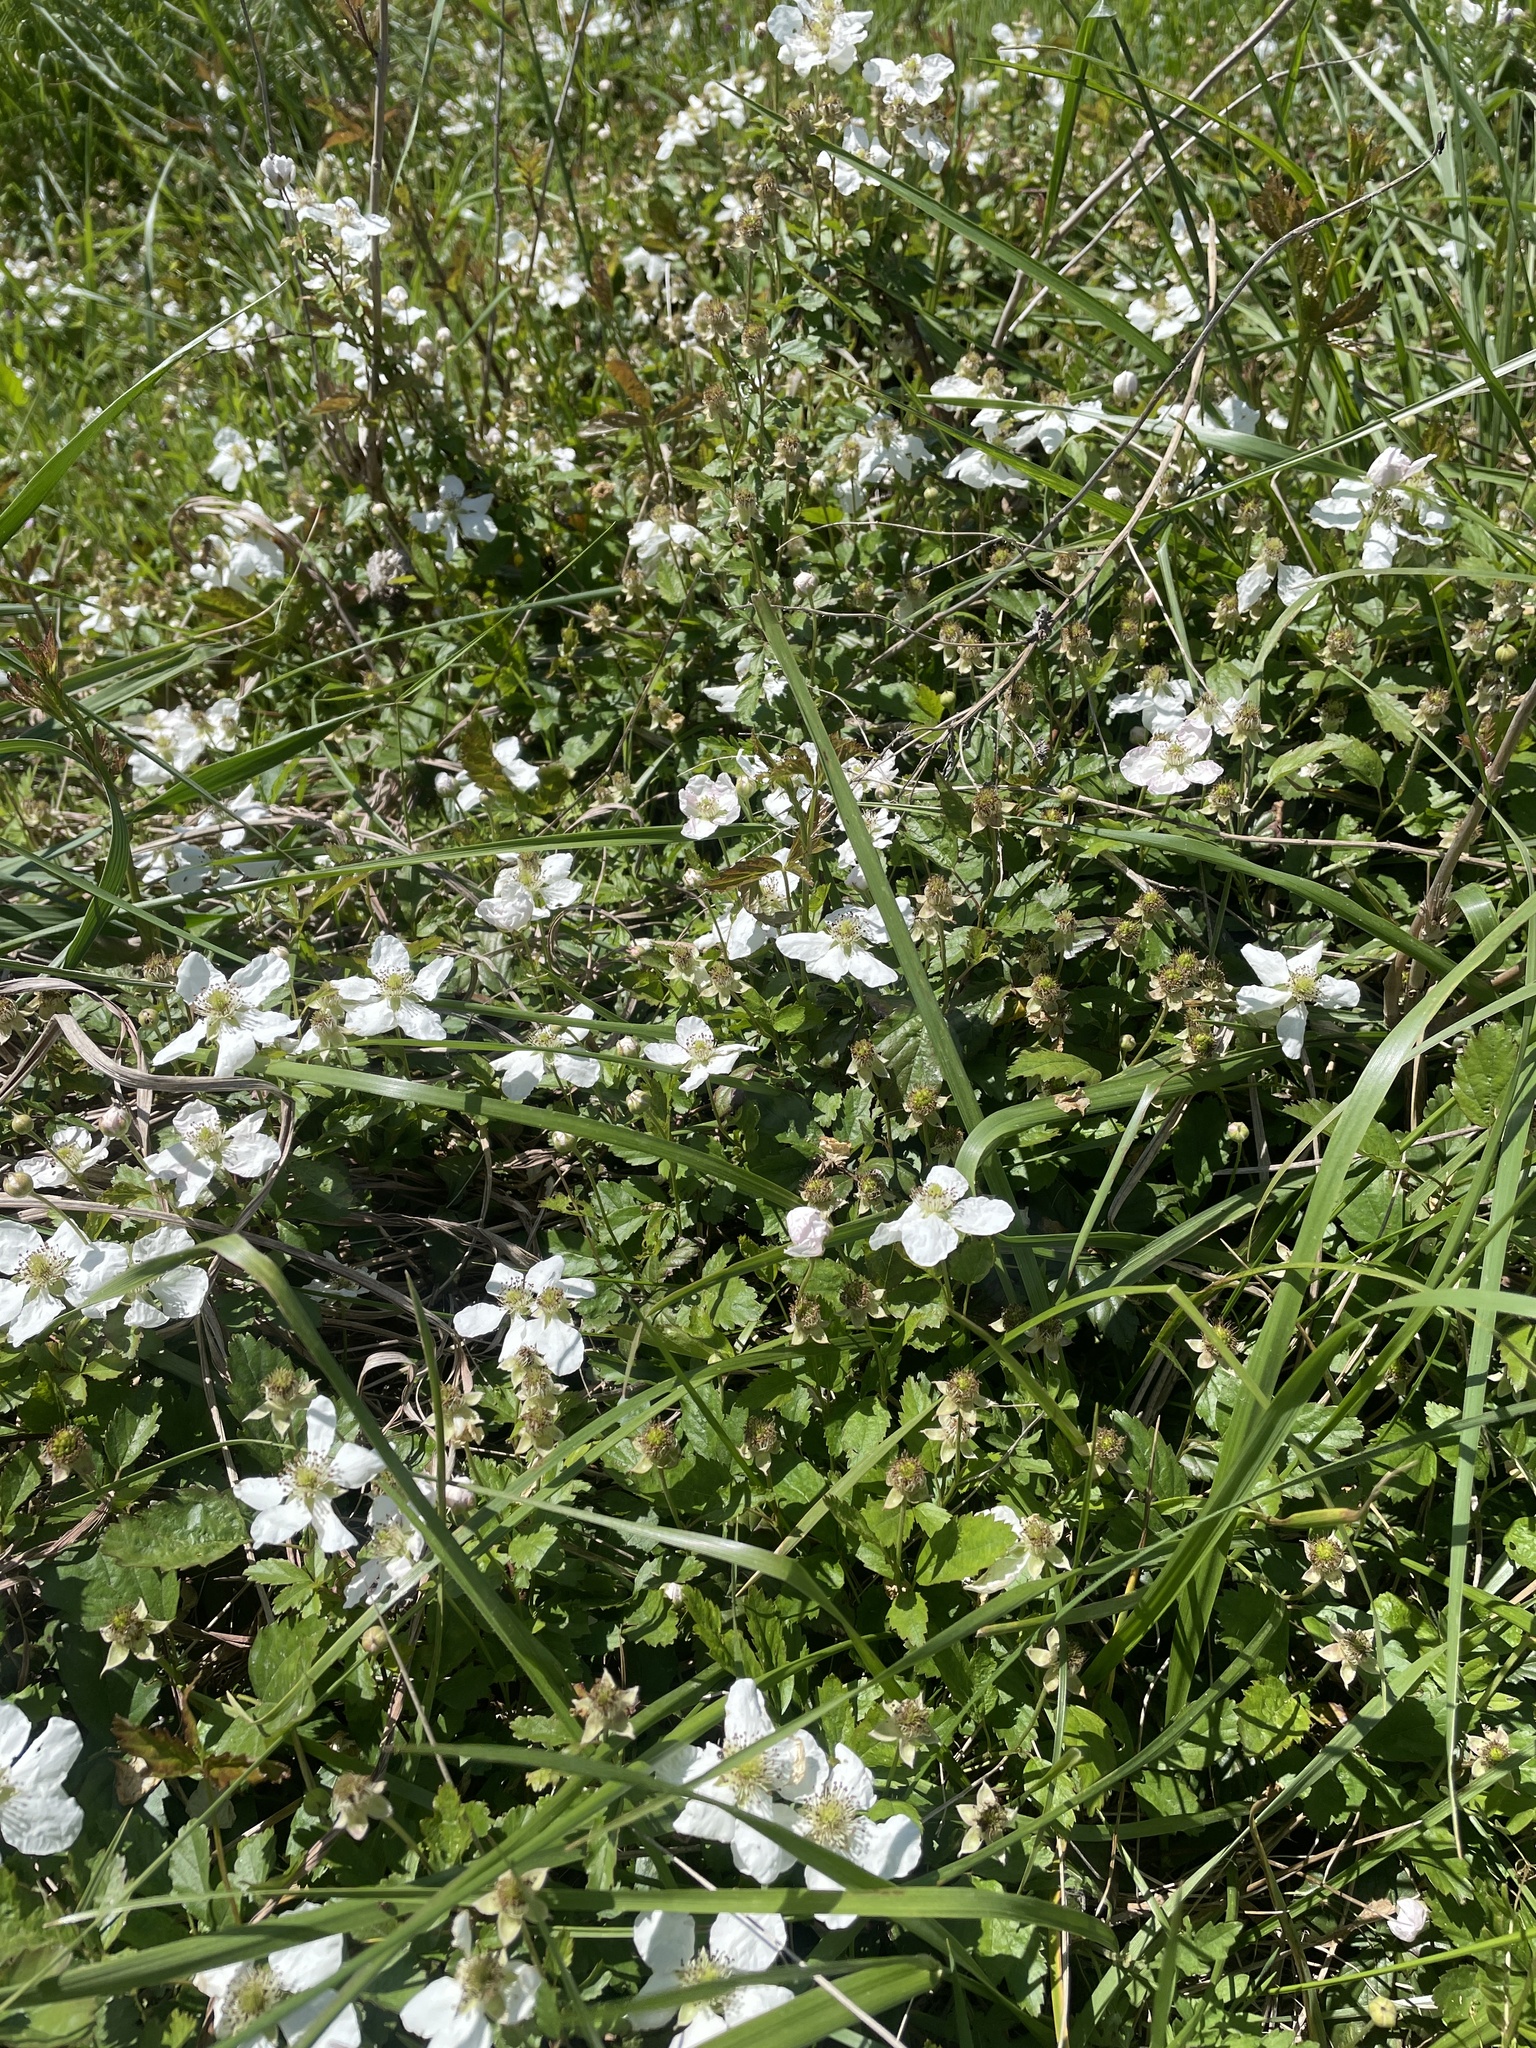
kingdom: Plantae
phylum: Tracheophyta
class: Magnoliopsida
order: Rosales
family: Rosaceae
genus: Rubus
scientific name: Rubus trivialis
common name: Southern dewberry
